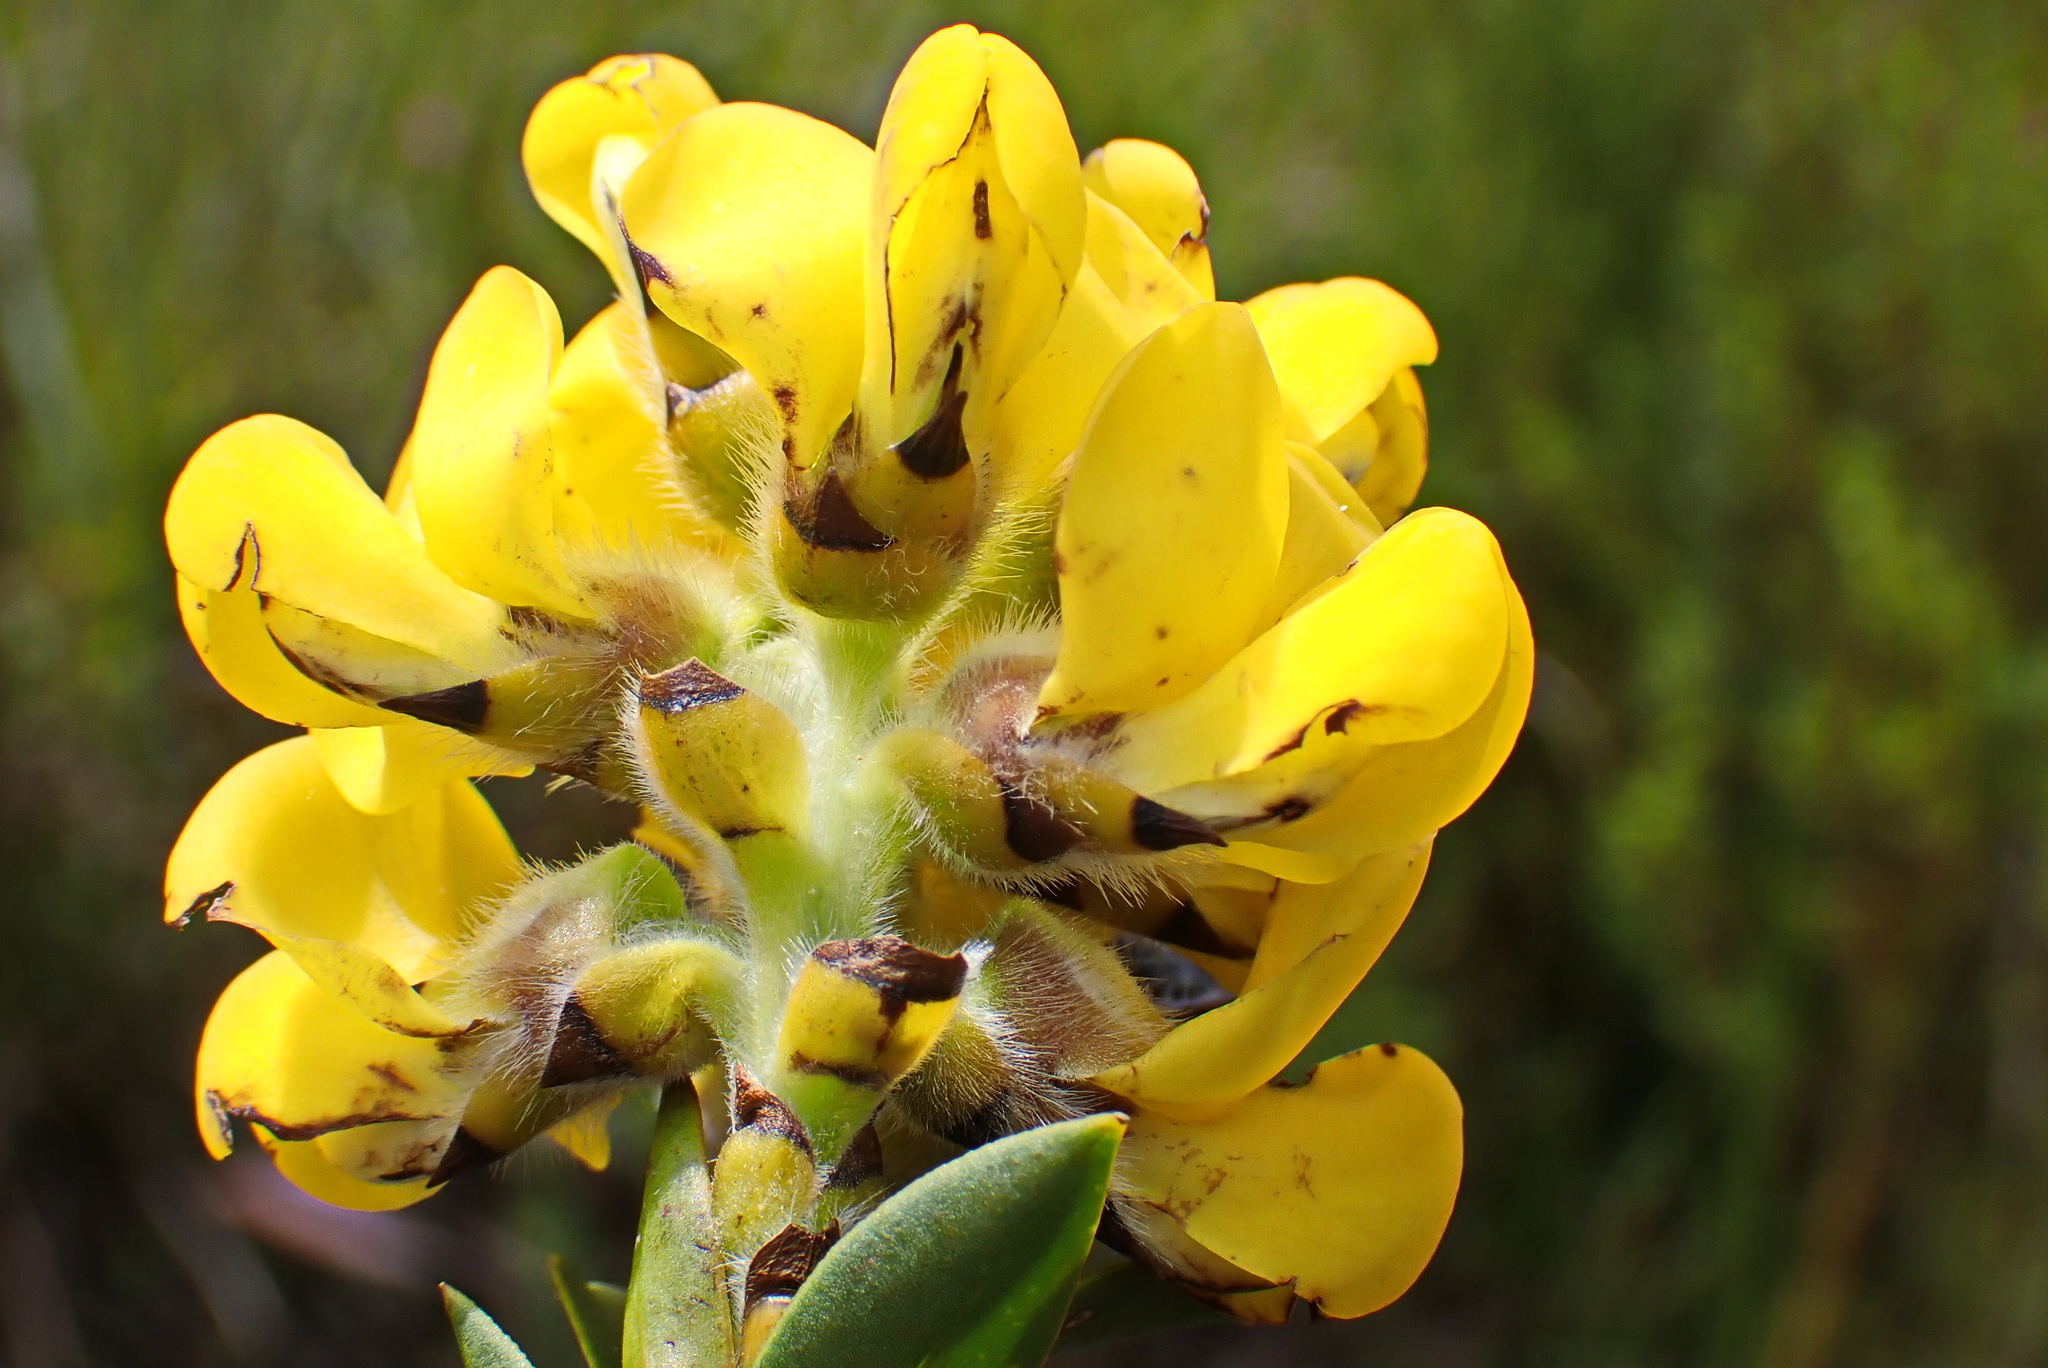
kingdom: Plantae
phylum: Tracheophyta
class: Magnoliopsida
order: Fabales
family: Fabaceae
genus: Liparia
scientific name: Liparia hirsuta
